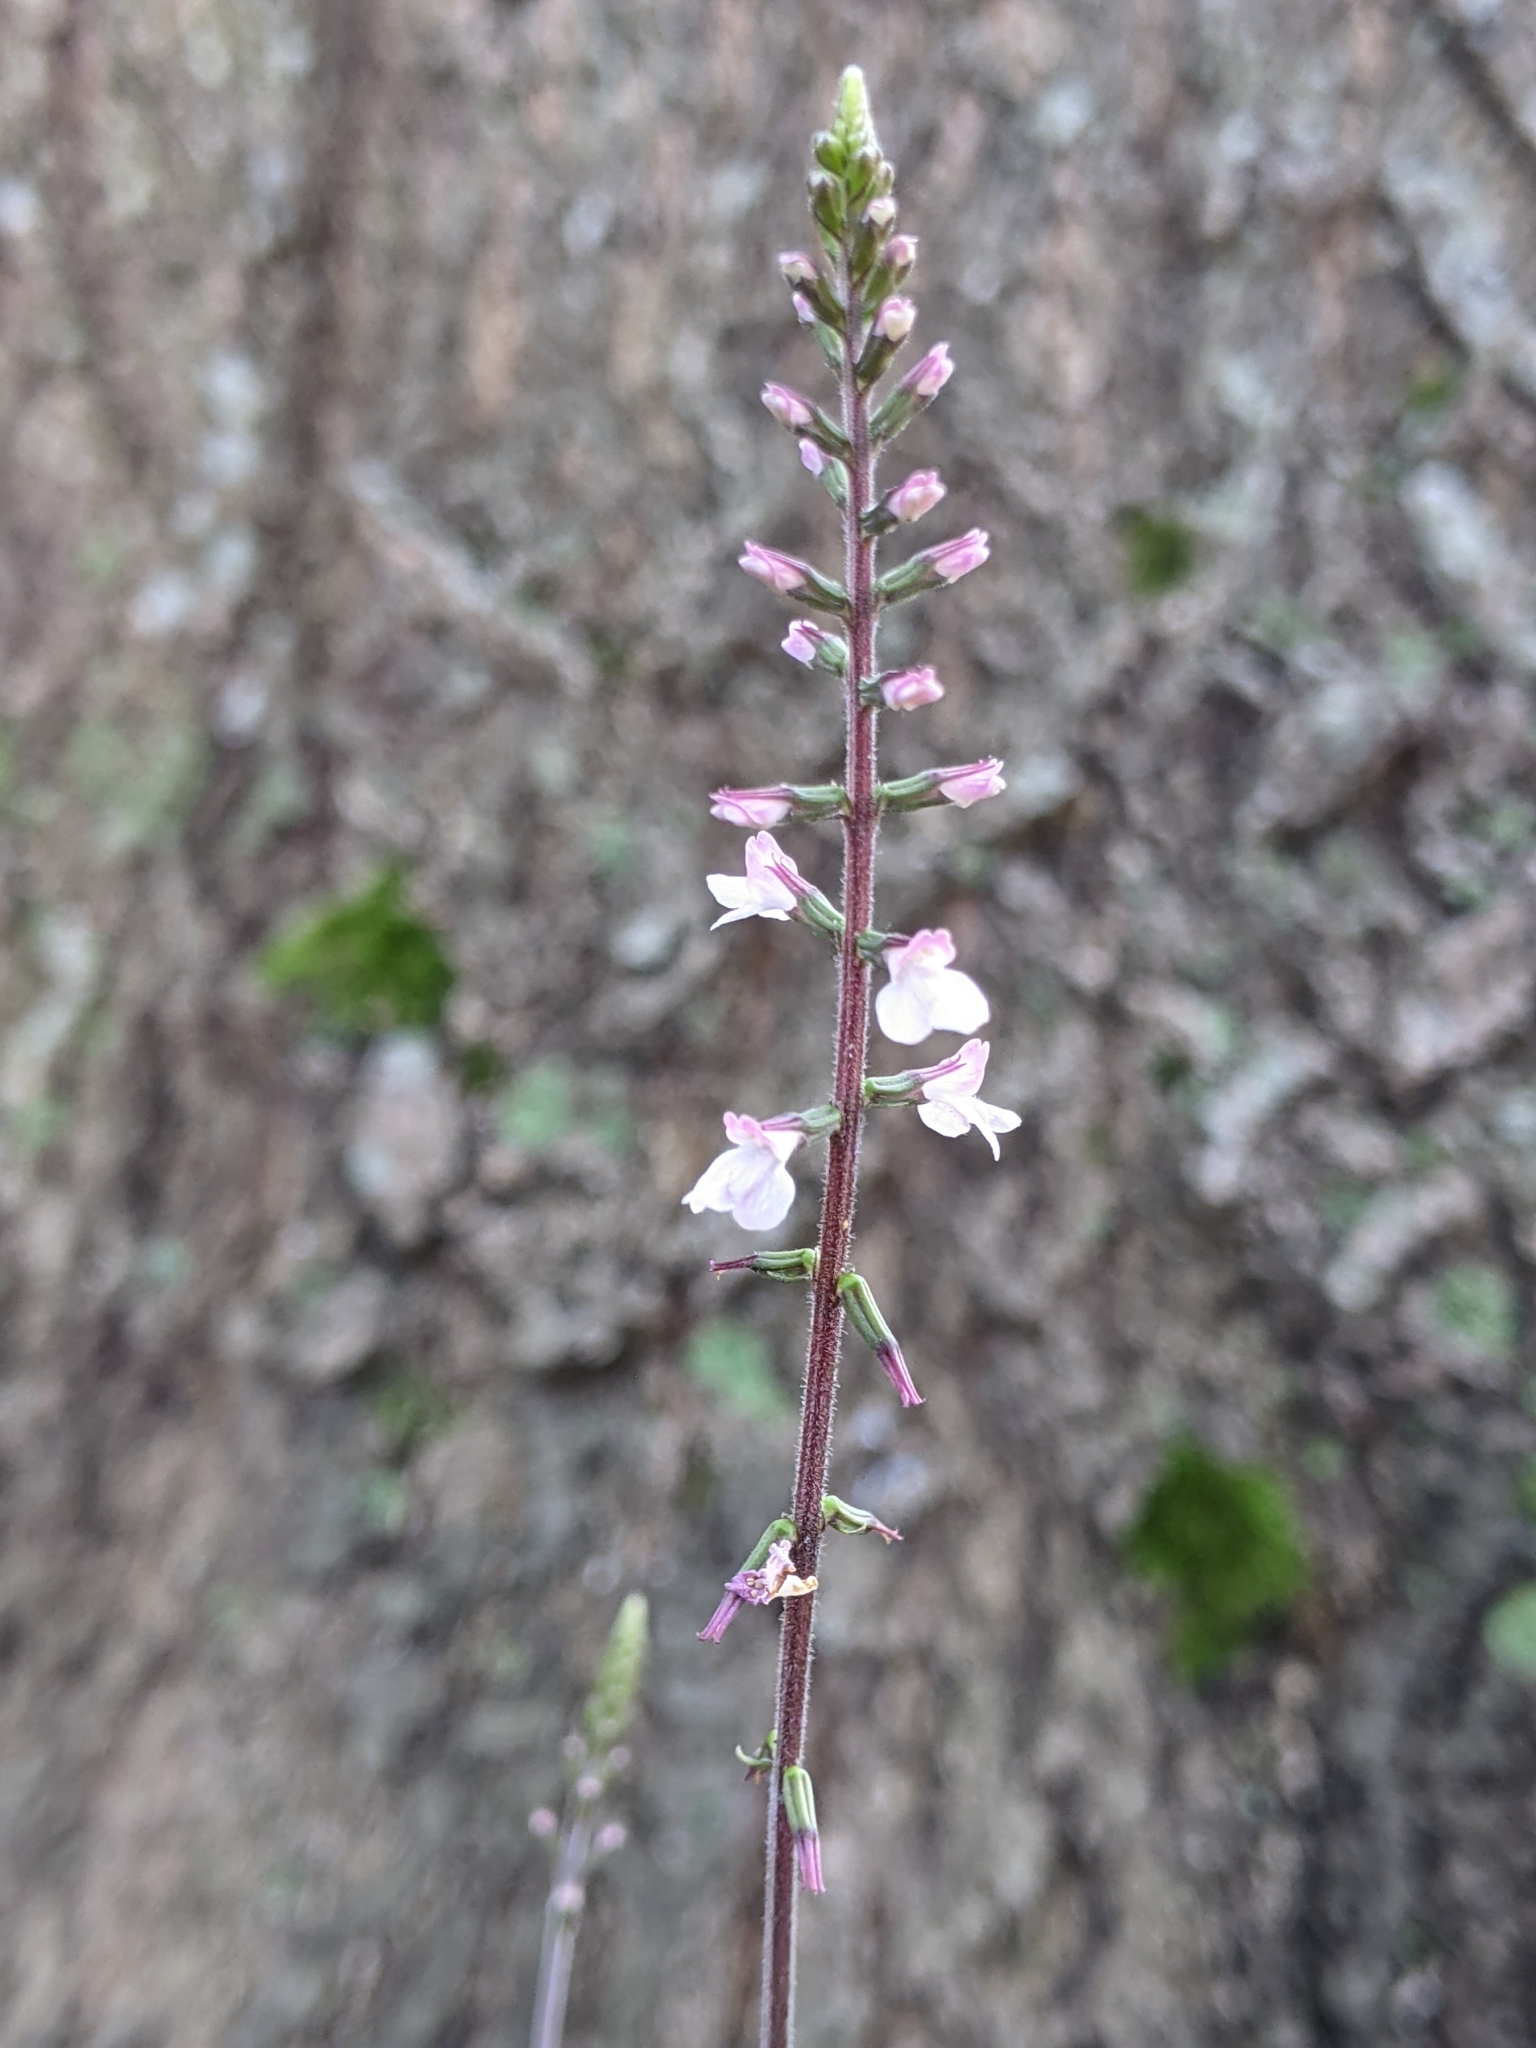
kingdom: Plantae
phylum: Tracheophyta
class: Magnoliopsida
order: Lamiales
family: Phrymaceae
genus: Phryma
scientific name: Phryma leptostachya
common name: American lopseed
